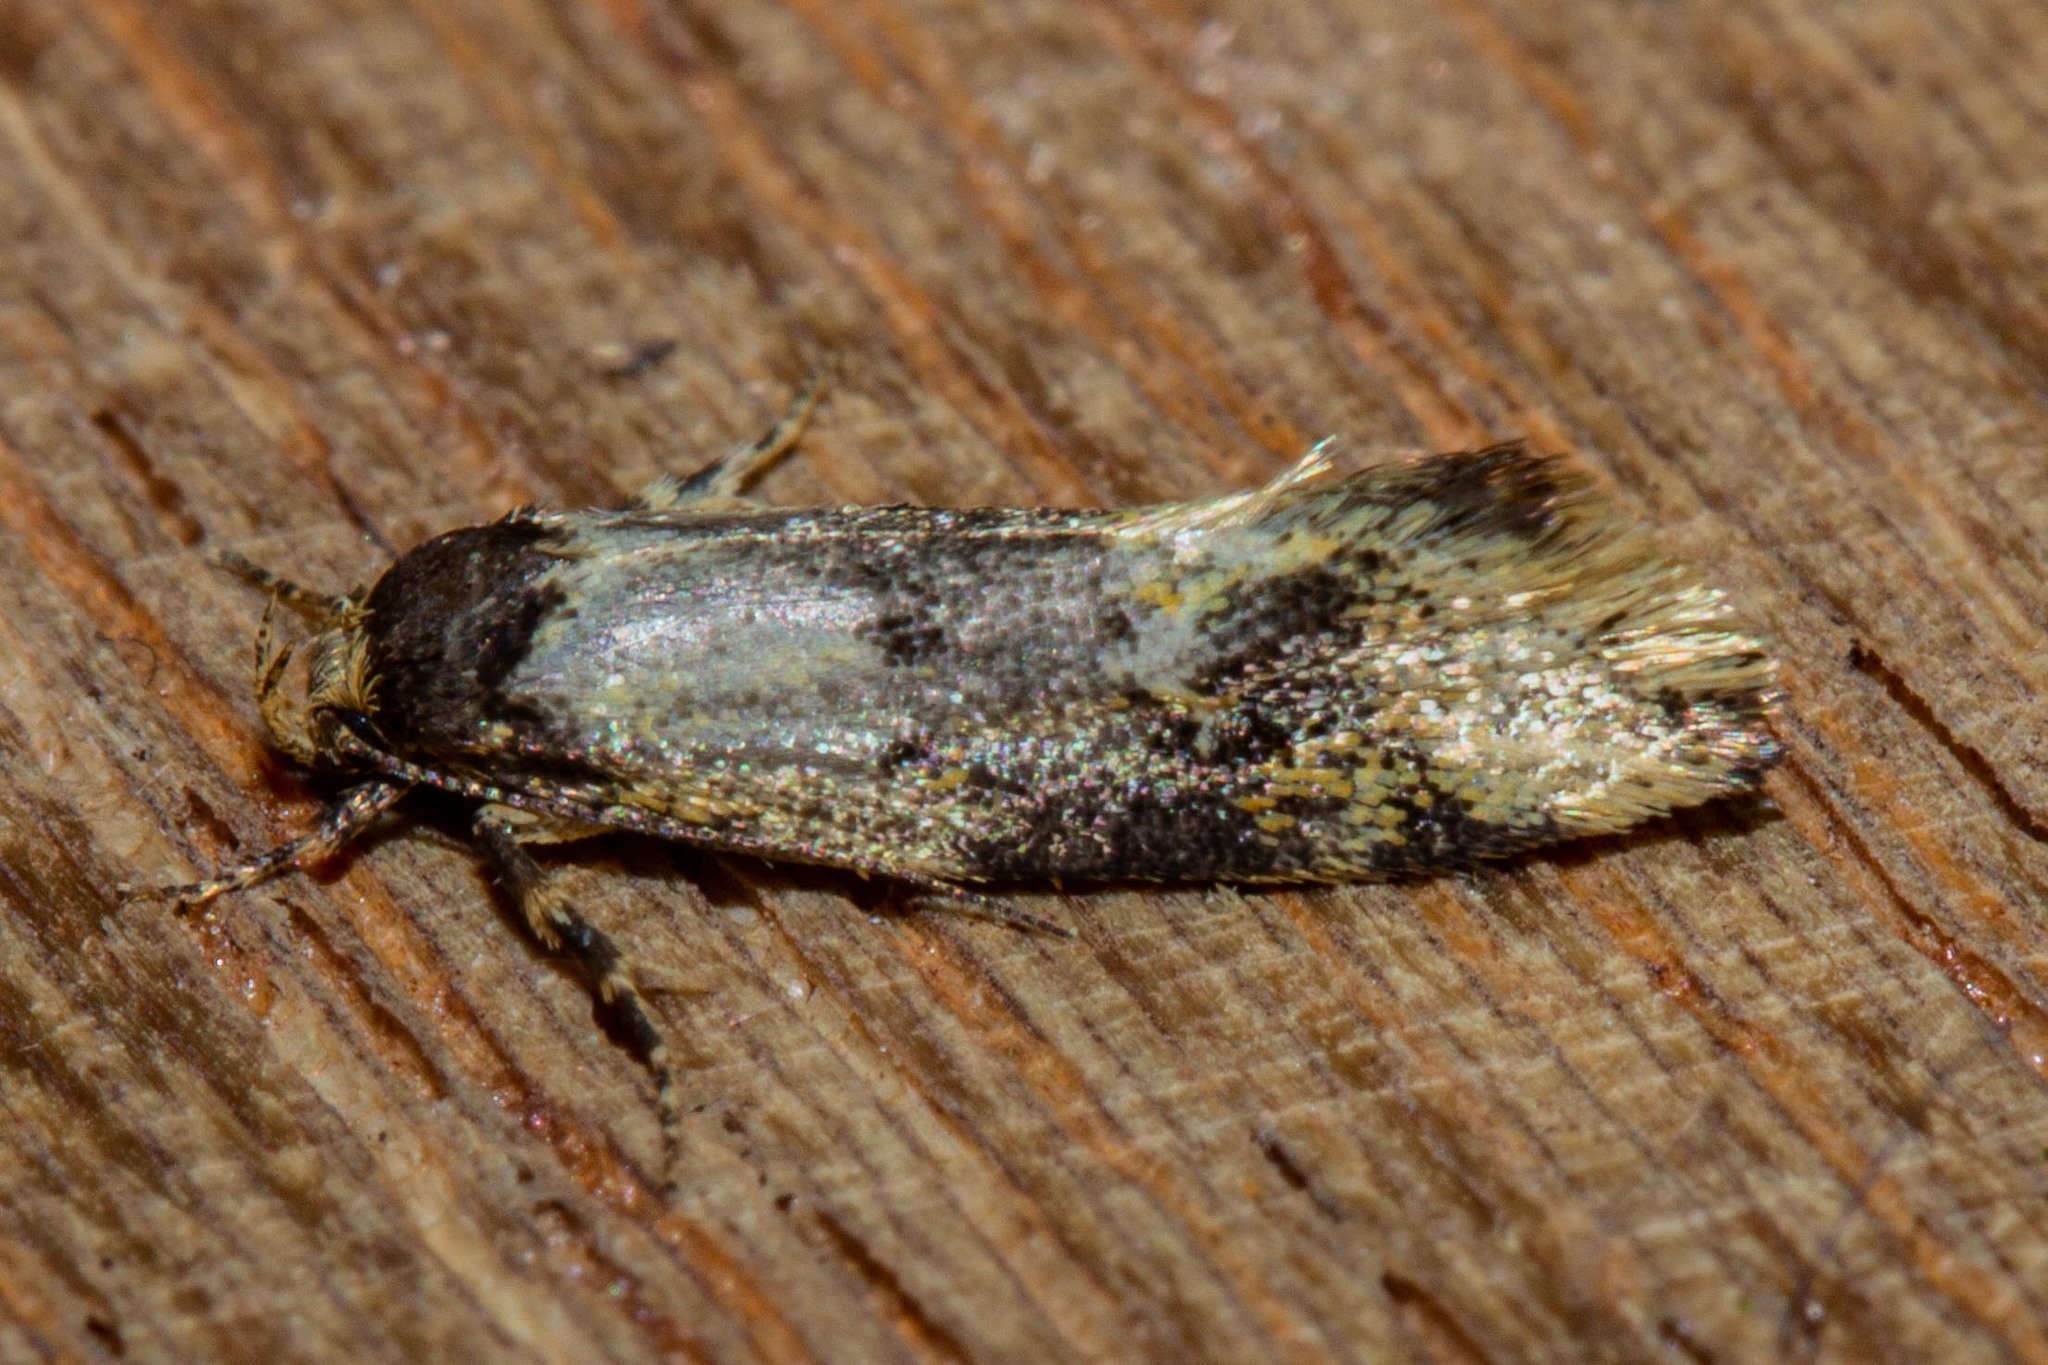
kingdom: Animalia
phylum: Arthropoda
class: Insecta
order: Lepidoptera
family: Oecophoridae
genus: Trachypepla
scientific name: Trachypepla lichenodes
